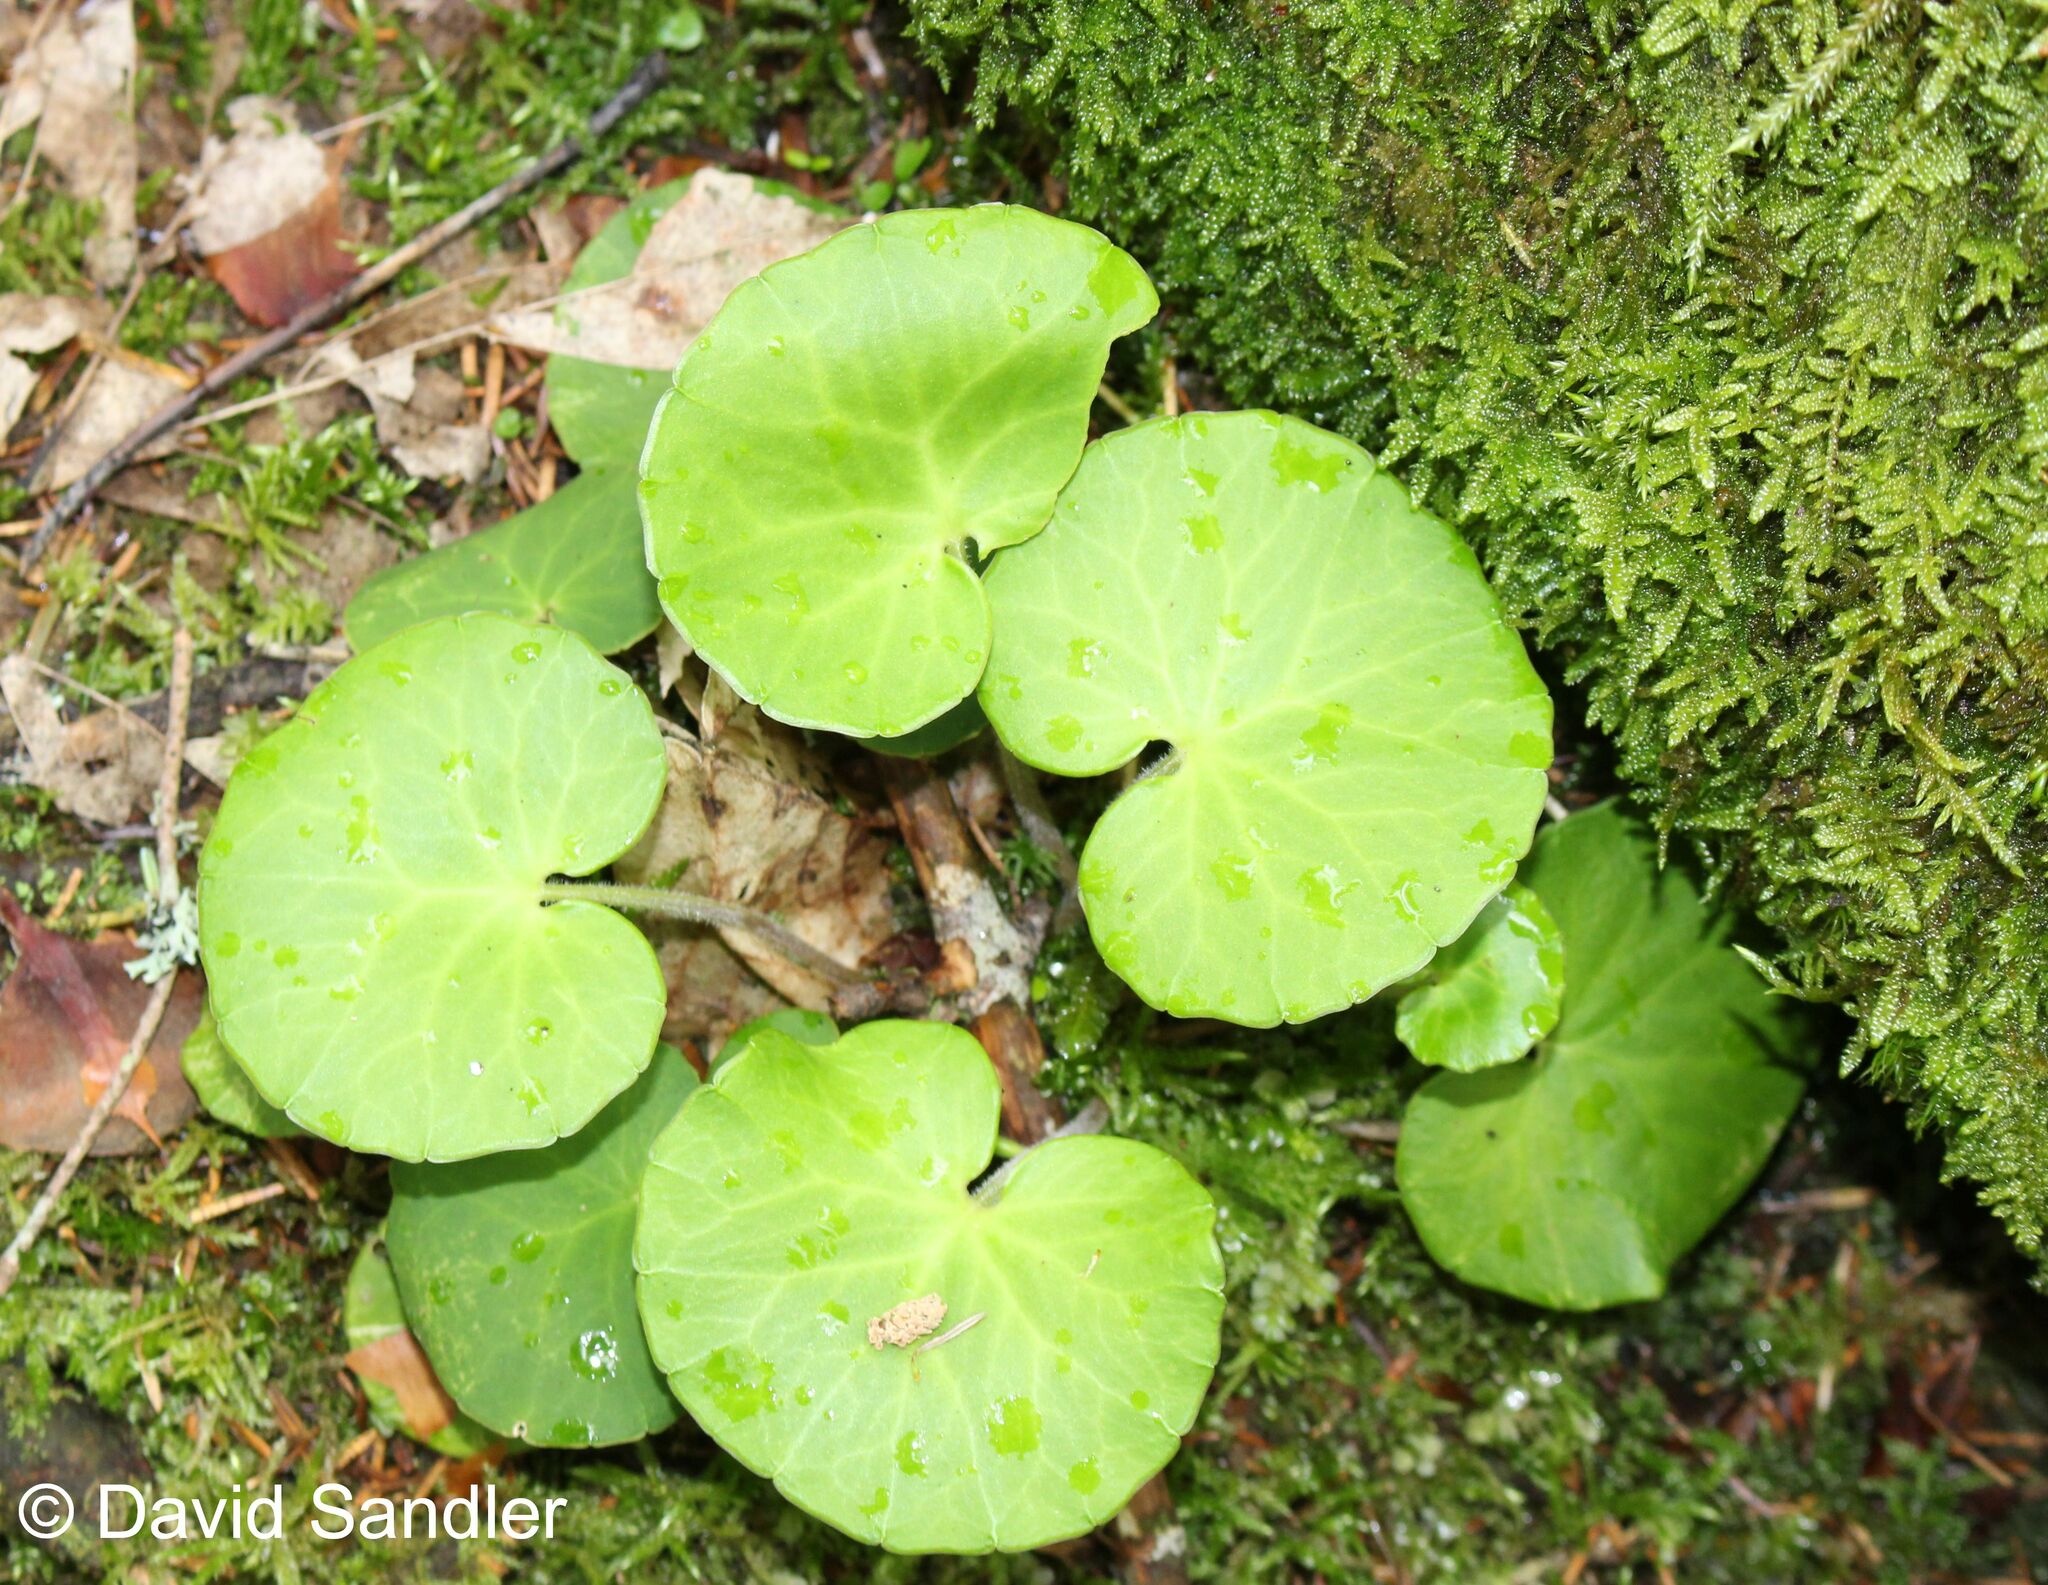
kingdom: Plantae
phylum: Tracheophyta
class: Magnoliopsida
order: Ericales
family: Primulaceae
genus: Soldanella
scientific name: Soldanella montana
